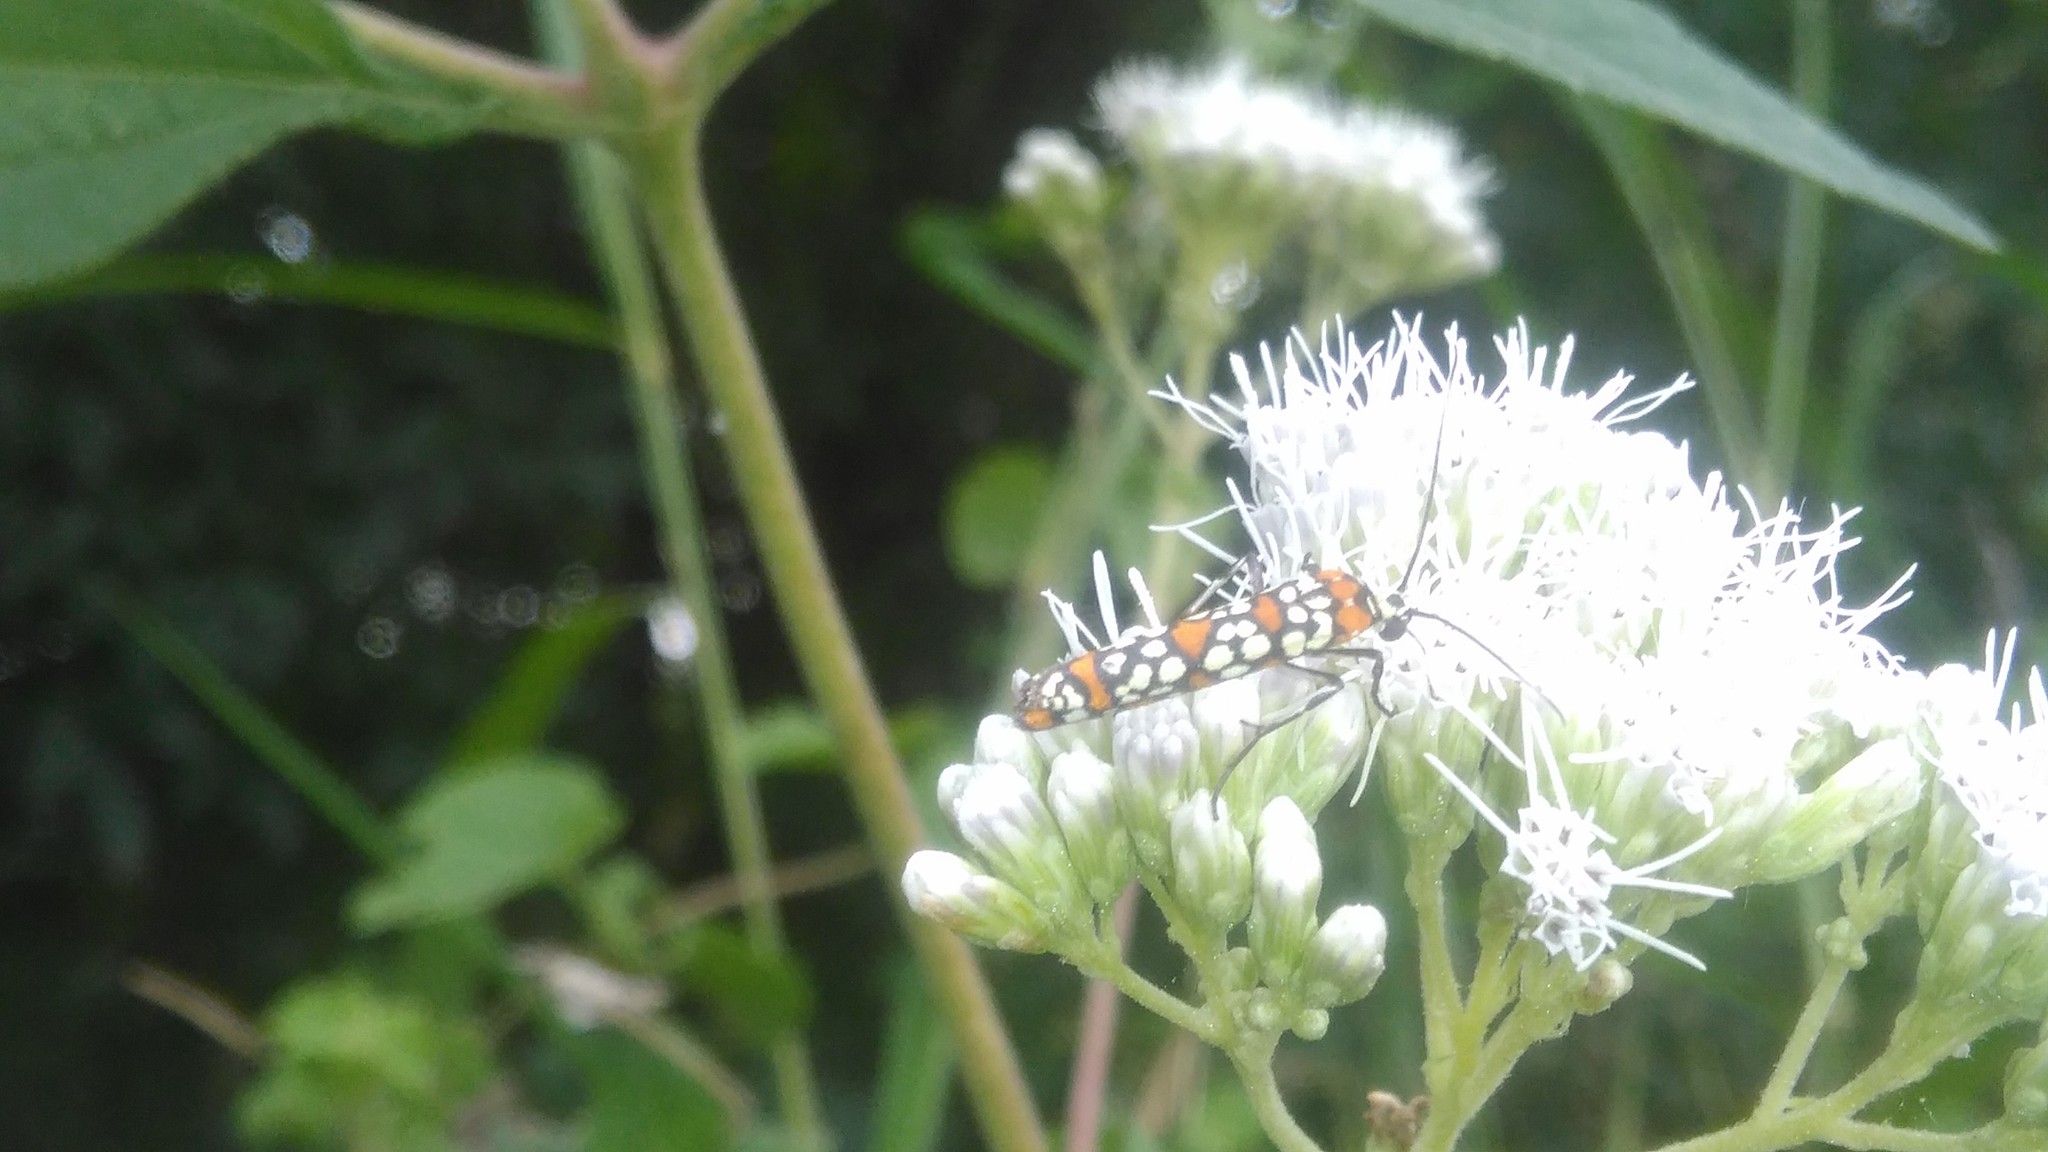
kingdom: Animalia
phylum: Arthropoda
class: Insecta
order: Lepidoptera
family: Attevidae
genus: Atteva
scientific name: Atteva punctella
